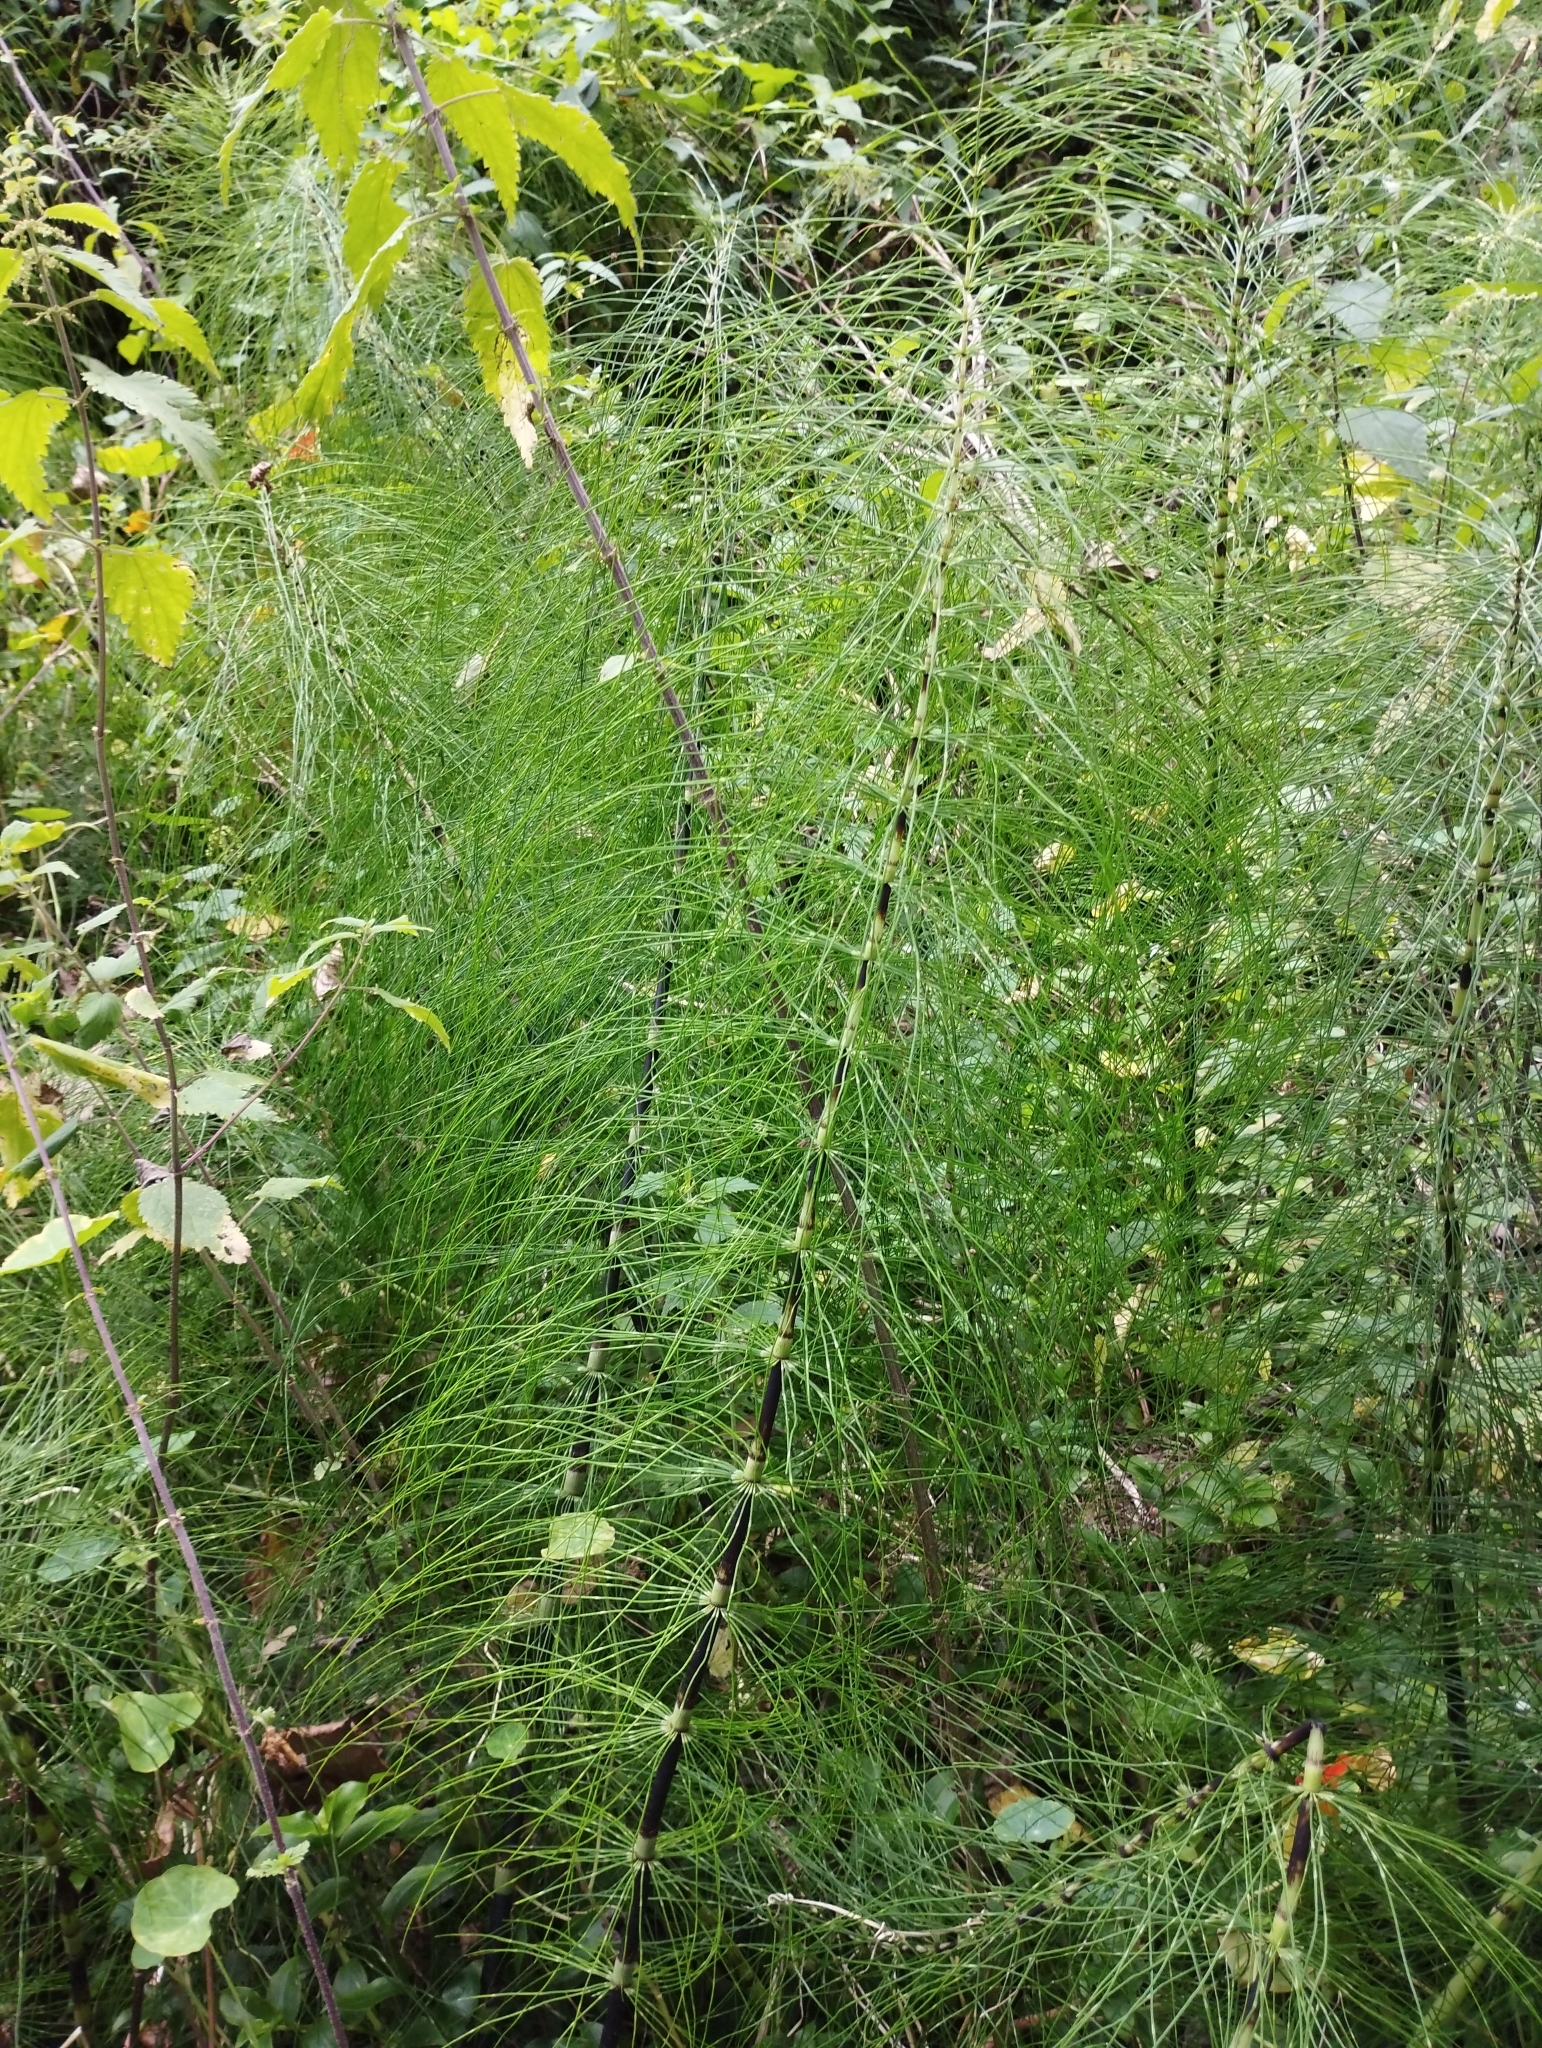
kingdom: Plantae
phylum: Tracheophyta
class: Polypodiopsida
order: Equisetales
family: Equisetaceae
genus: Equisetum
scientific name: Equisetum telmateia
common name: Great horsetail
